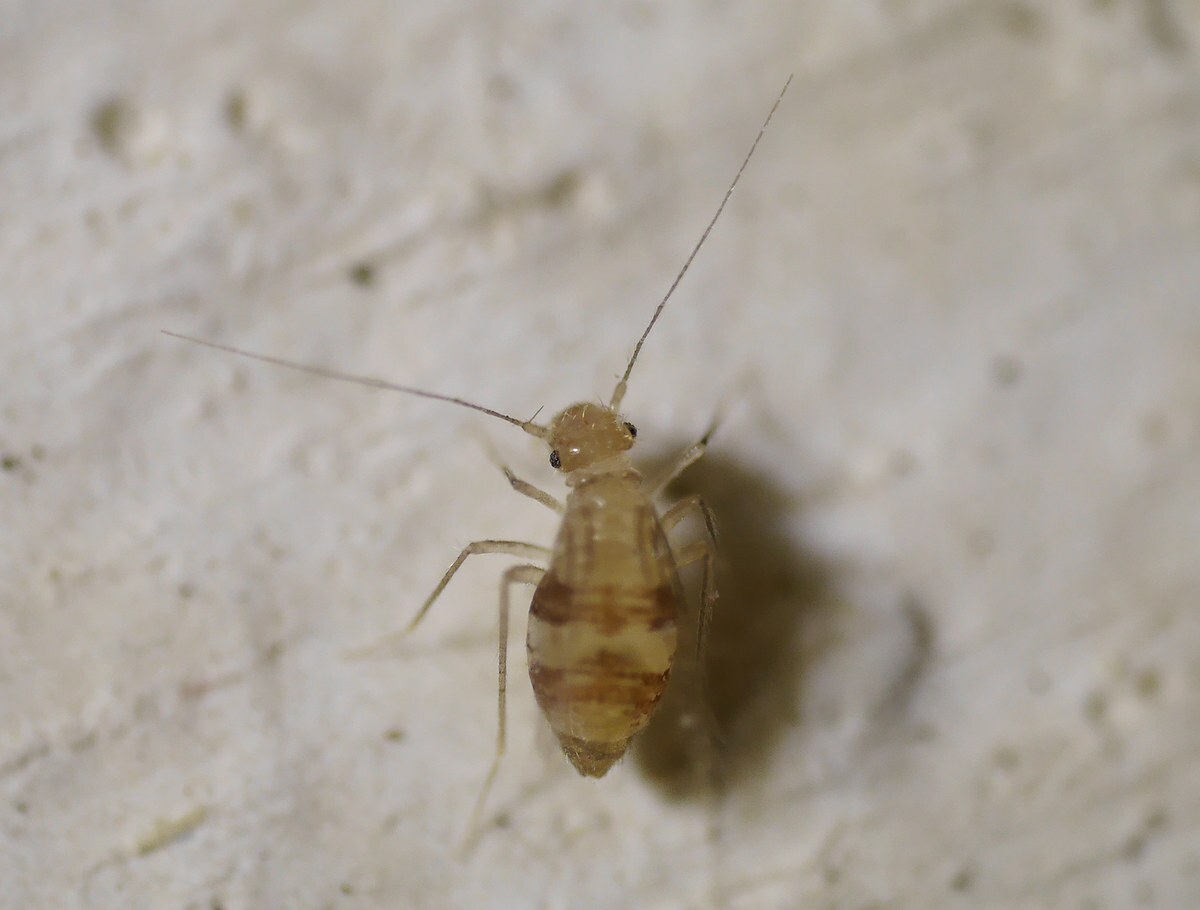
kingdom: Animalia
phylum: Arthropoda
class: Insecta
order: Psocodea
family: Psyllipsocidae
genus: Dorypteryx
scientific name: Dorypteryx domestica
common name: Cave barklouse
